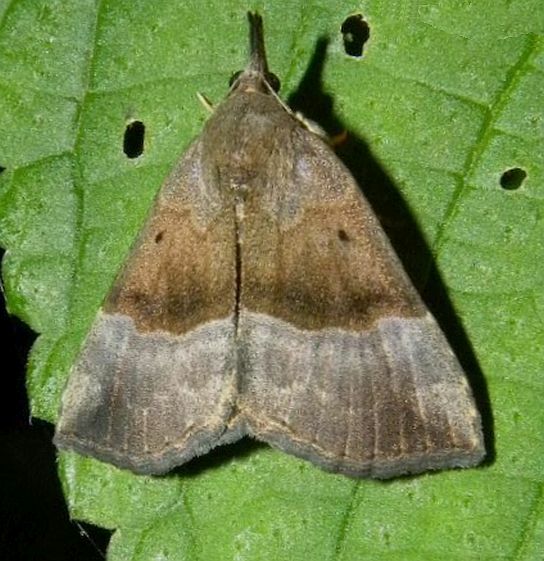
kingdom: Animalia
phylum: Arthropoda
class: Insecta
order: Lepidoptera
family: Erebidae
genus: Hypena
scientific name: Hypena madefactalis
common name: Gray-edged snout
